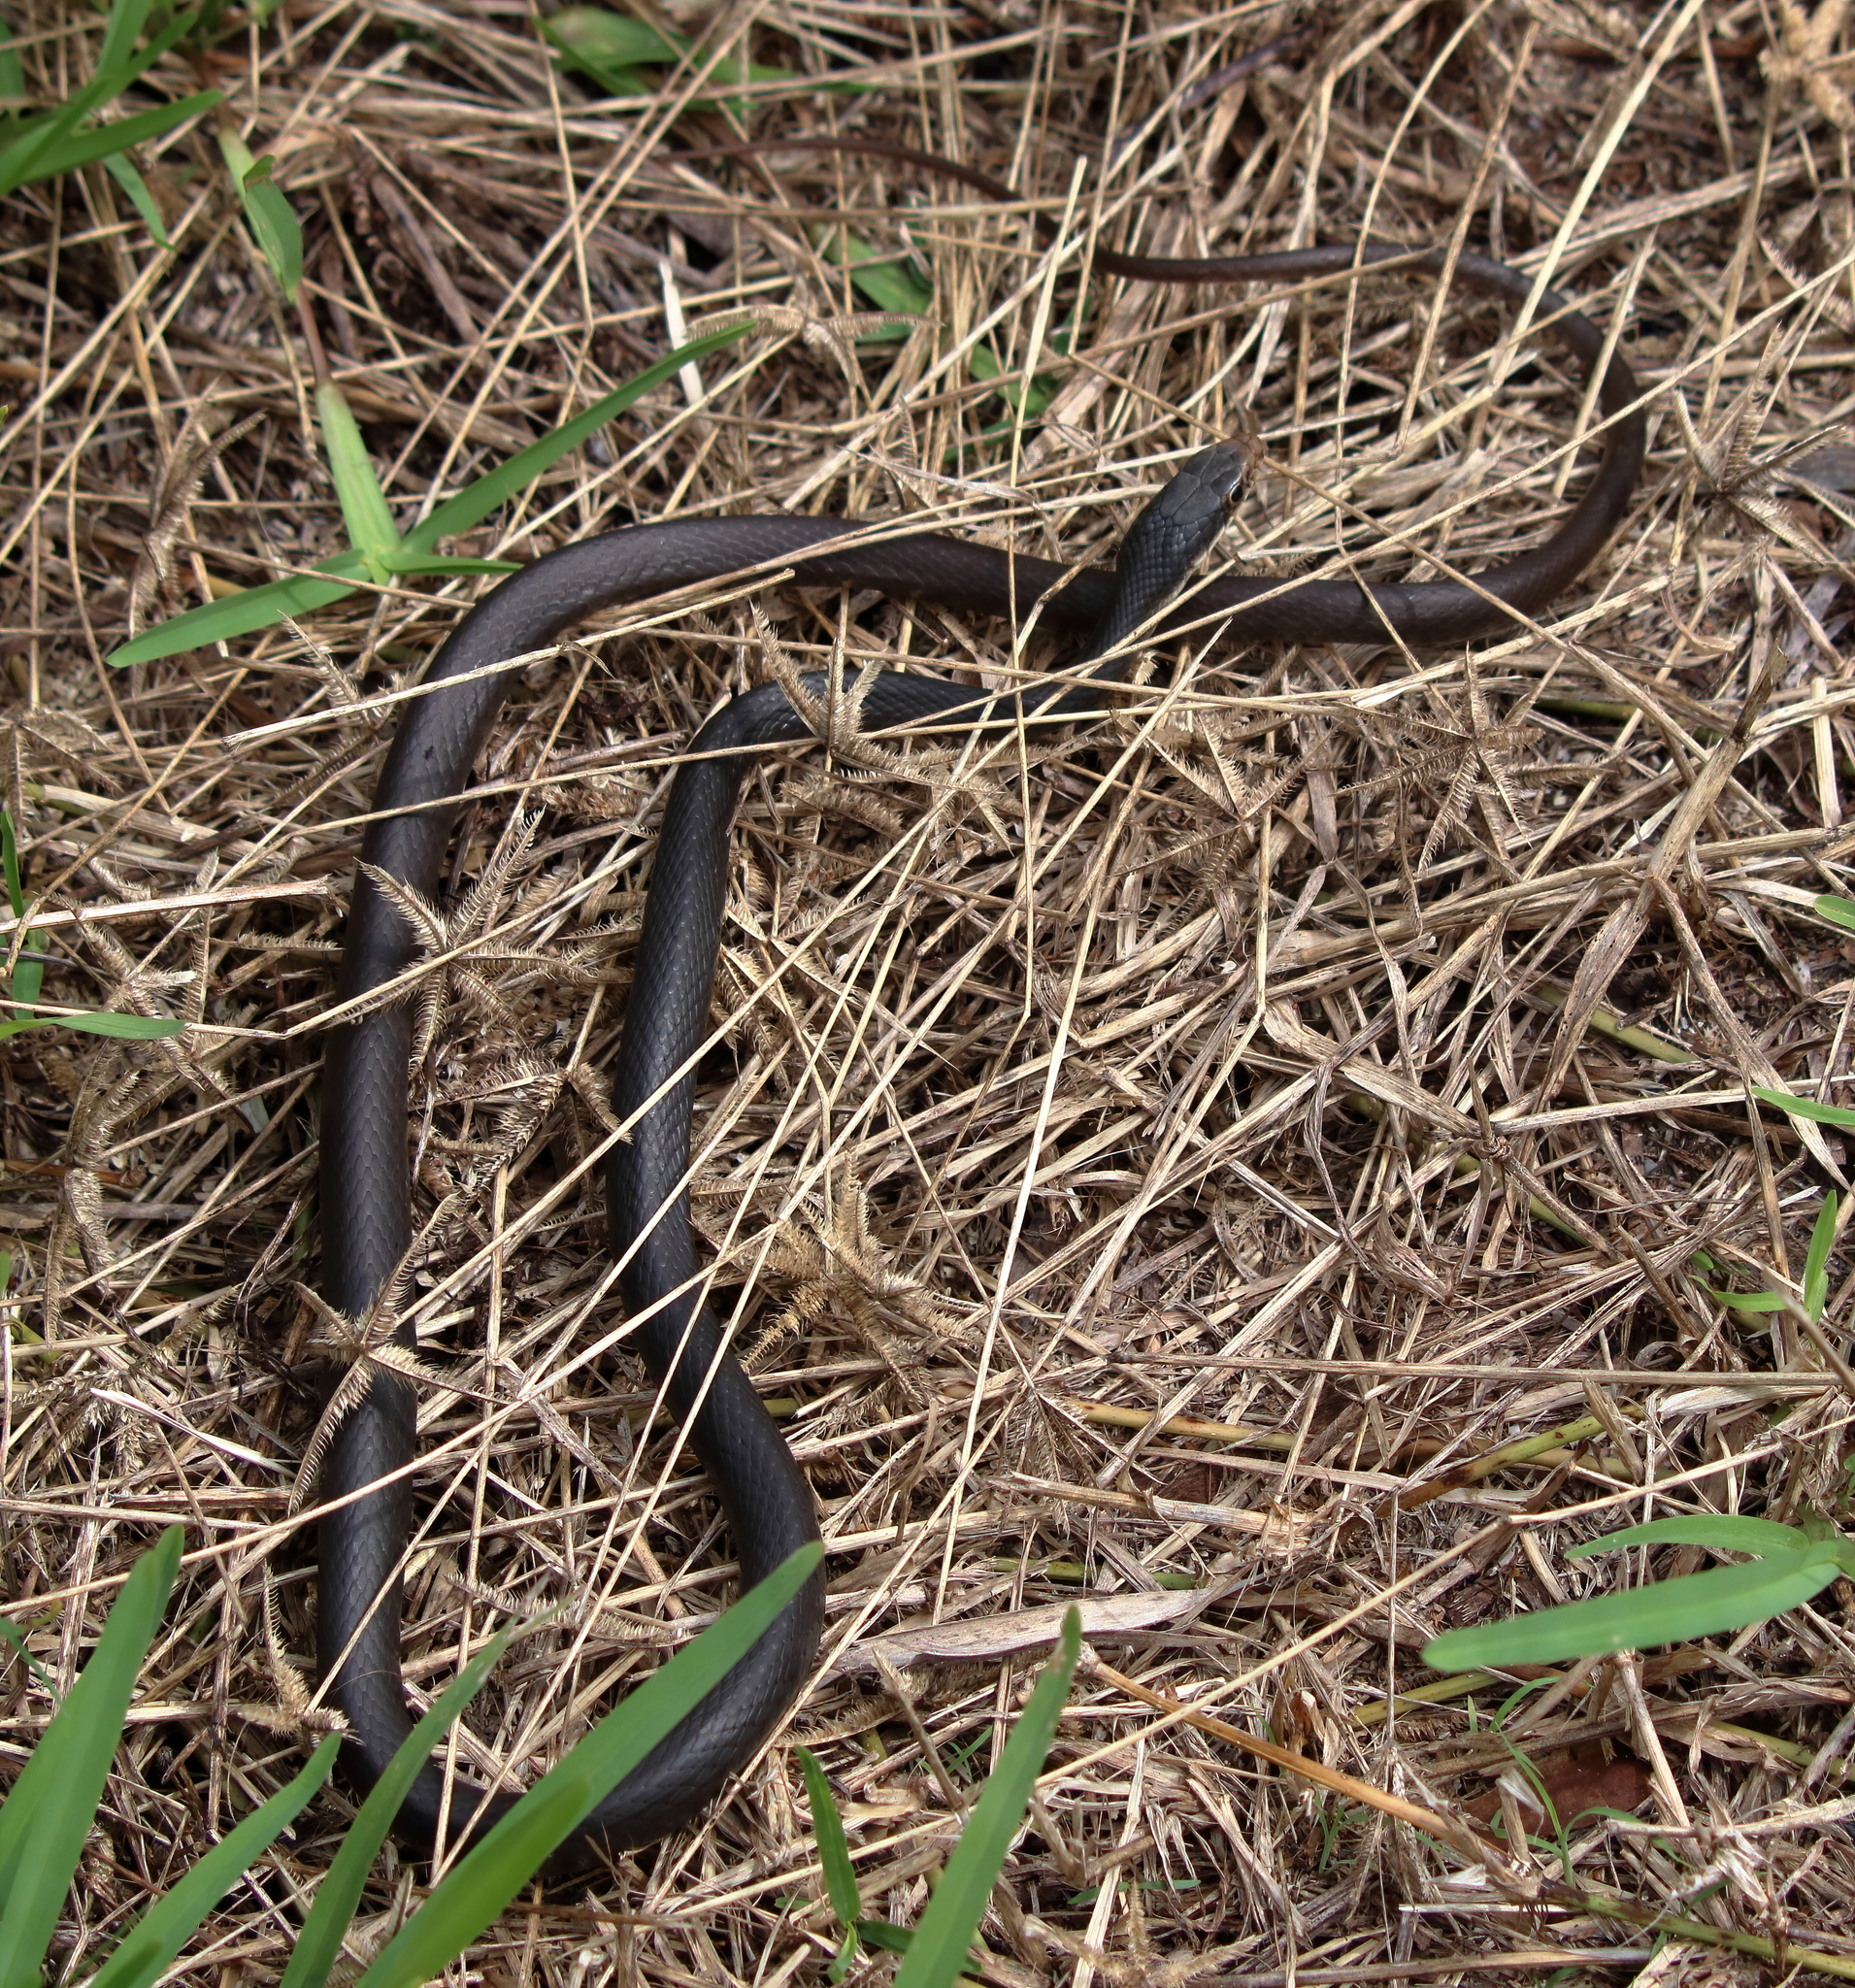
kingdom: Animalia
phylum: Chordata
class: Squamata
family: Colubridae
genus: Coluber
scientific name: Coluber constrictor
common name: Eastern racer
